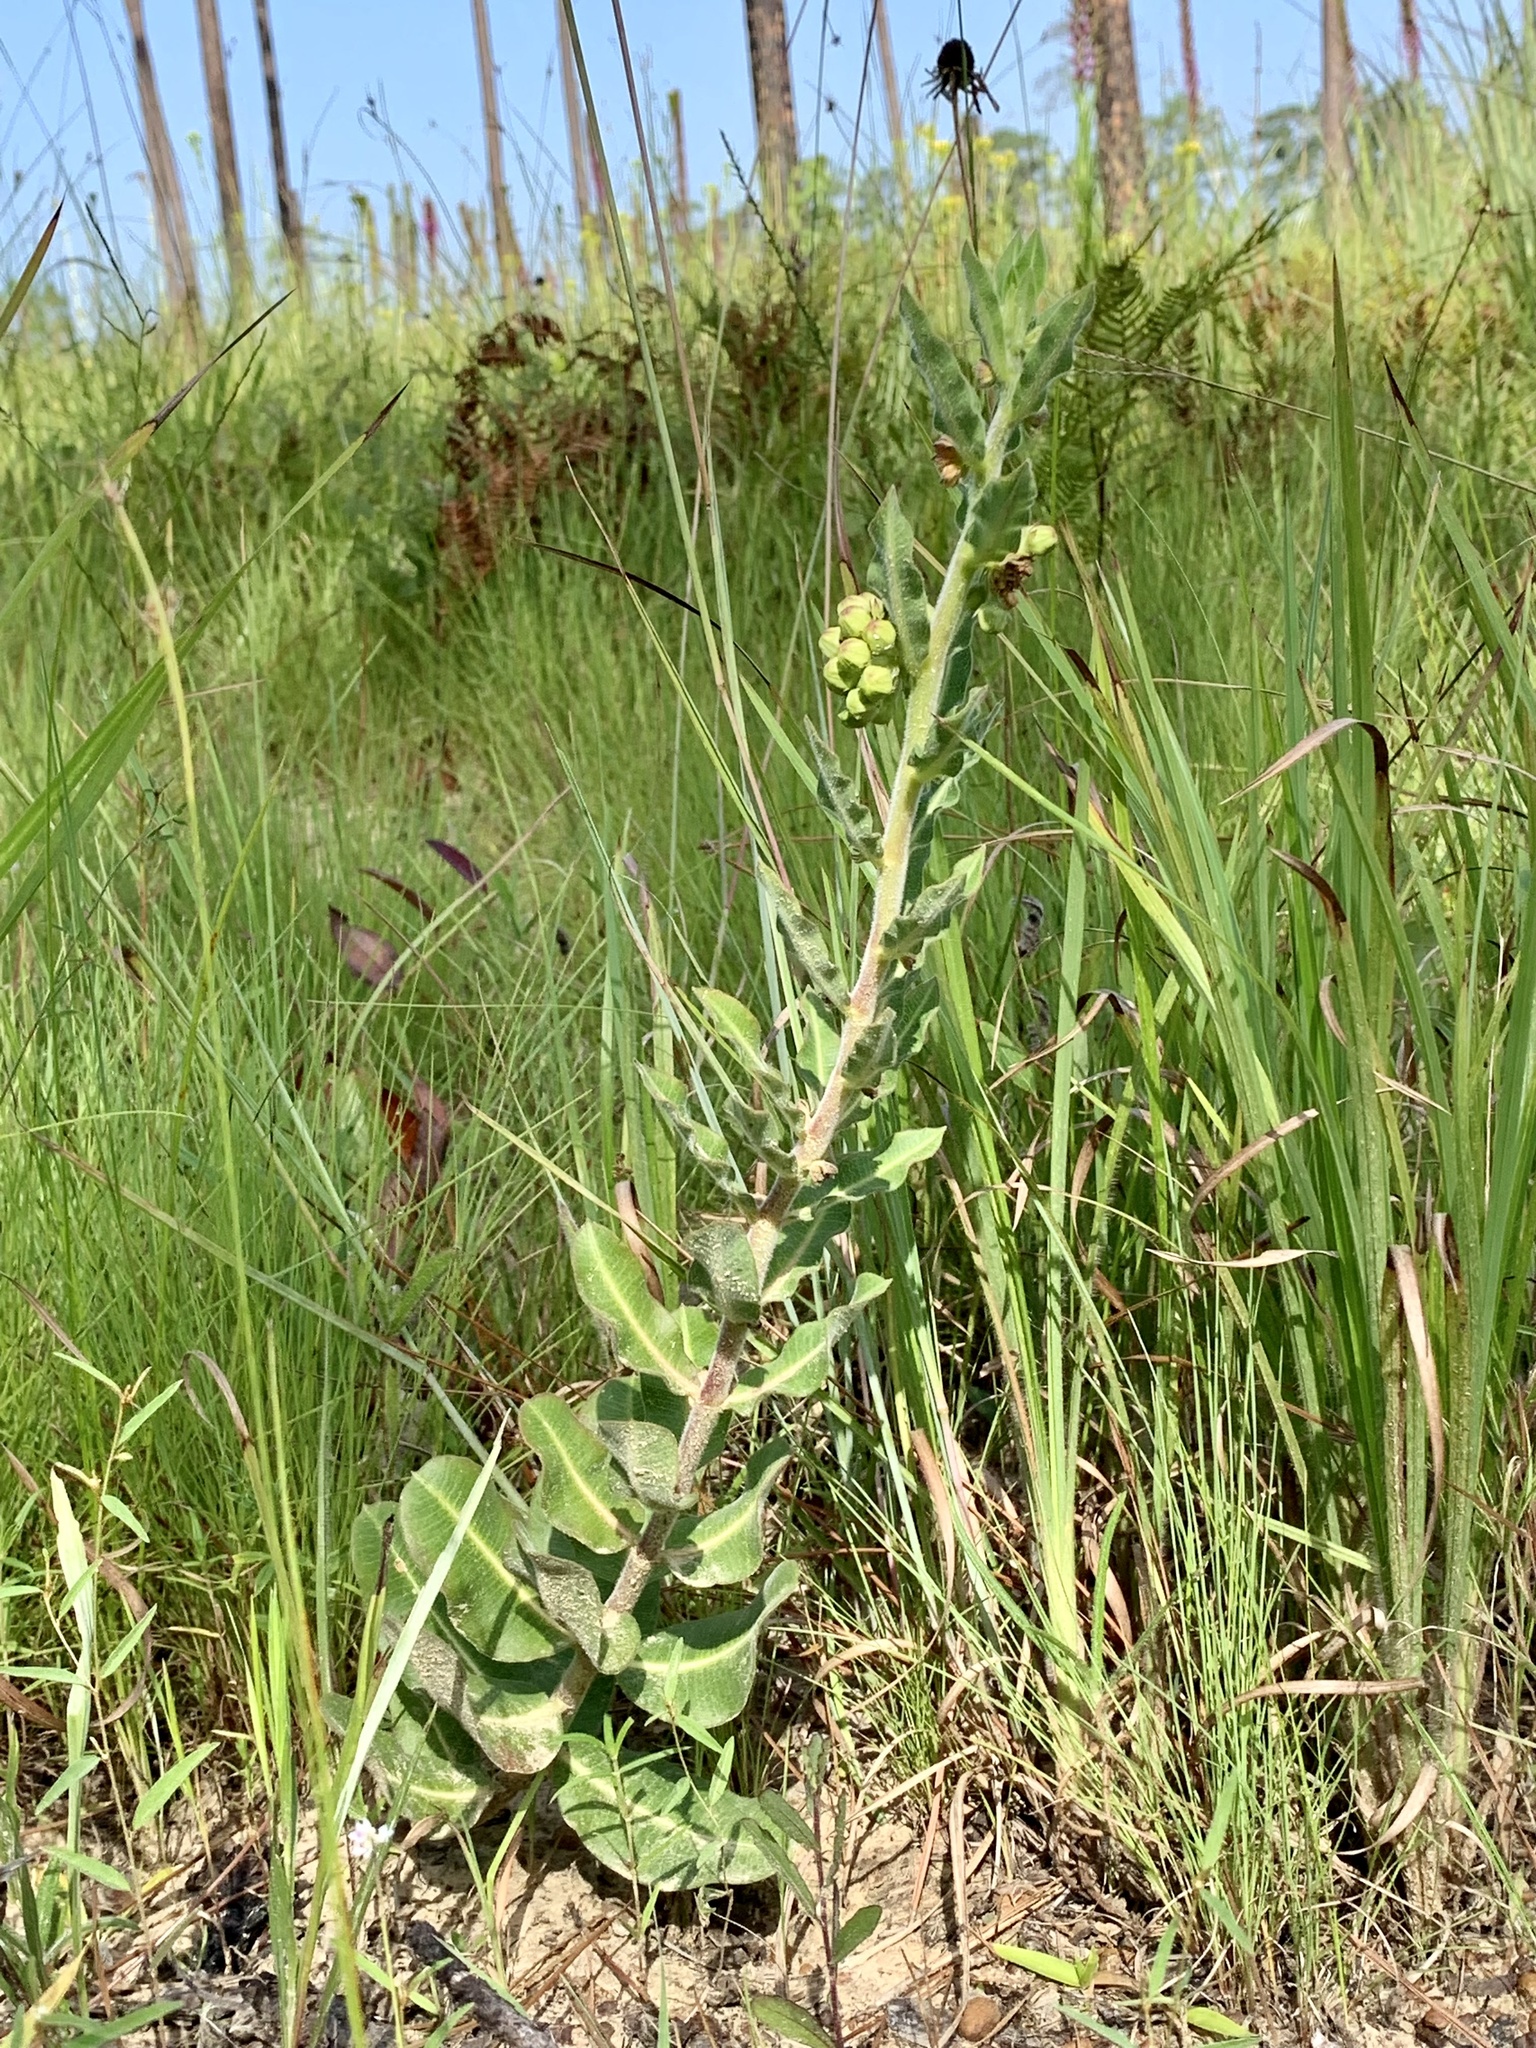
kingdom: Plantae
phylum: Tracheophyta
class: Magnoliopsida
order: Gentianales
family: Apocynaceae
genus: Asclepias
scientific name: Asclepias obovata
